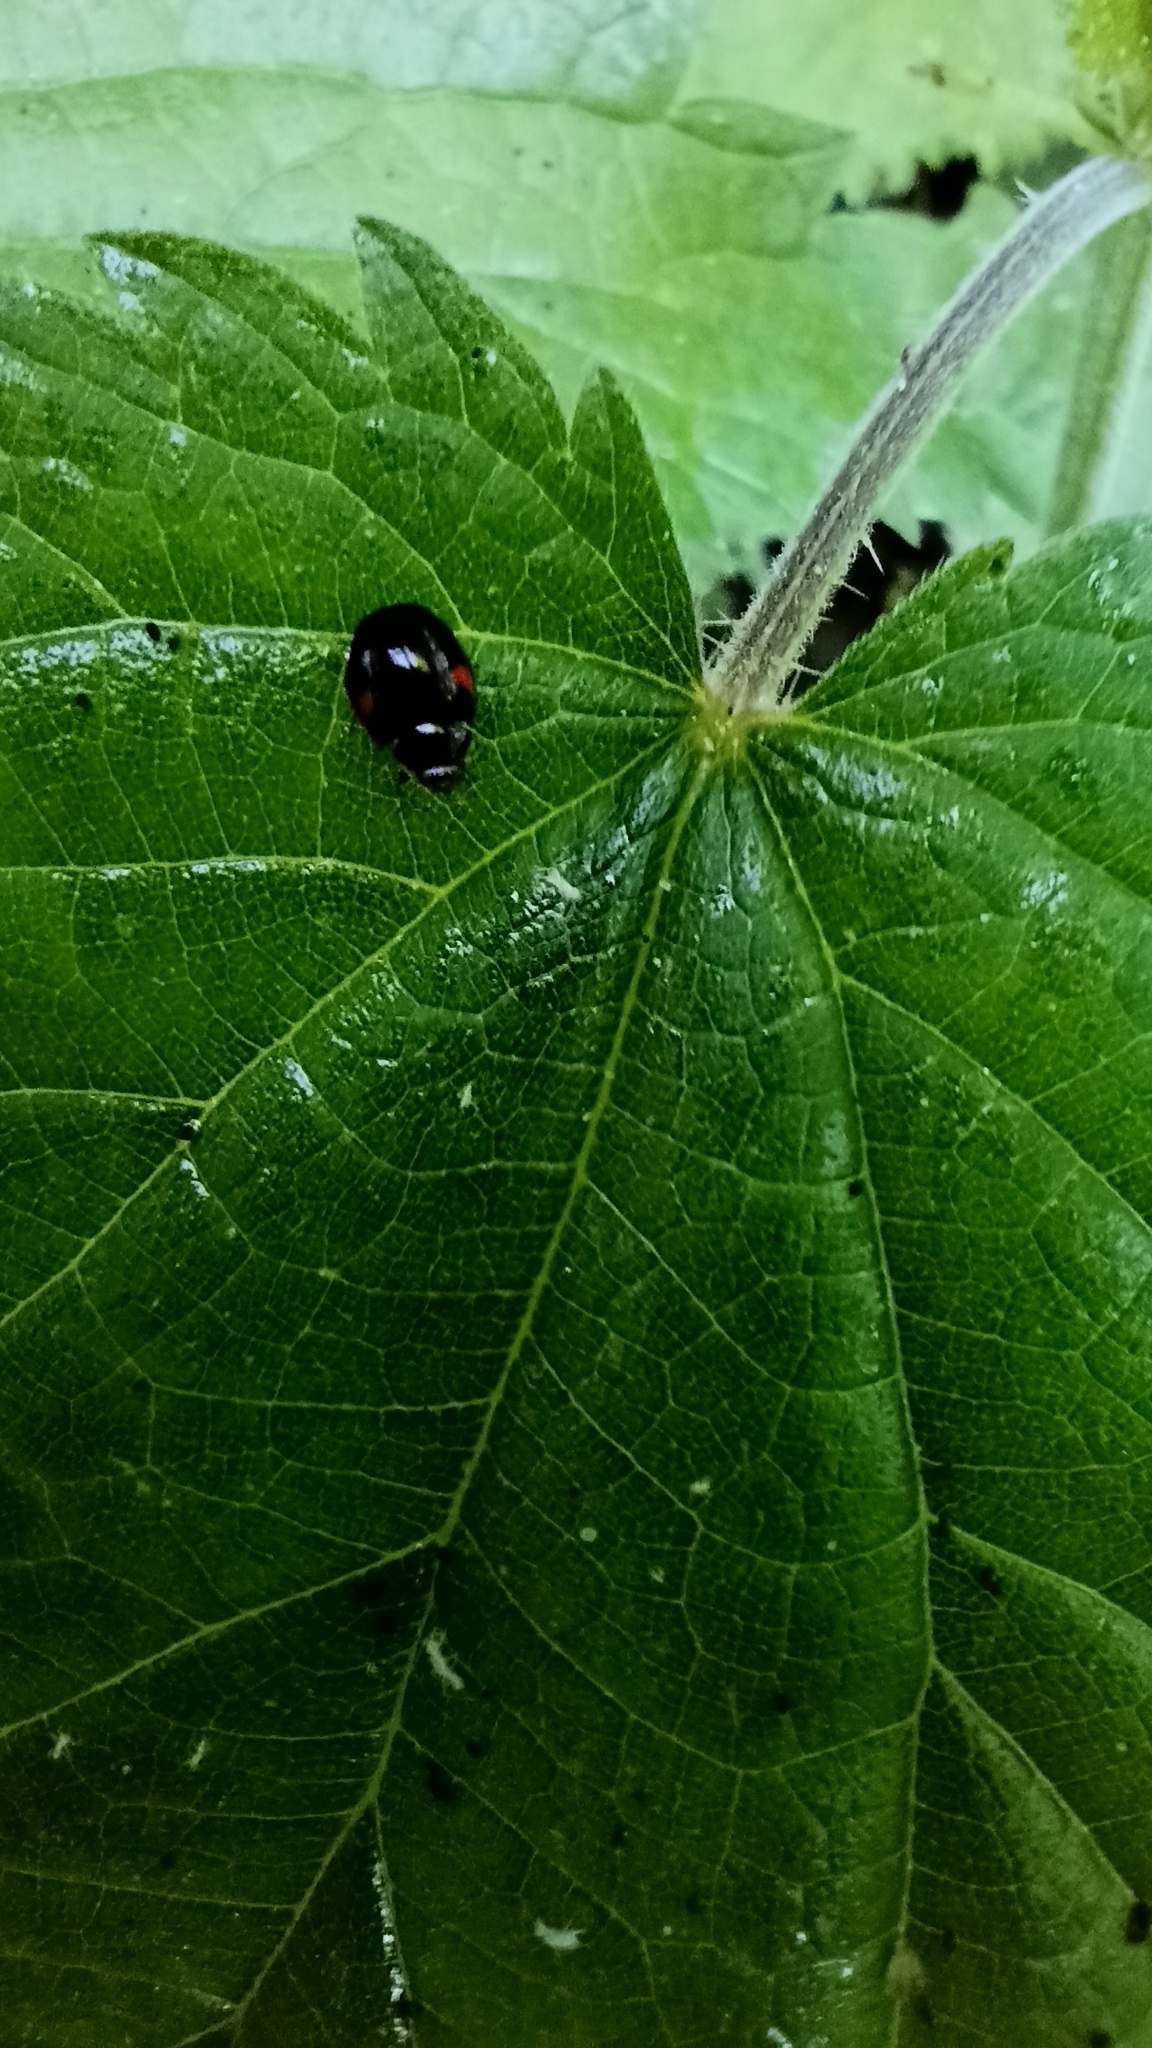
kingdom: Animalia
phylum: Arthropoda
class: Insecta
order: Coleoptera
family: Coccinellidae
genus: Adalia
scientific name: Adalia decempunctata
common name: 10-spot ladybird
